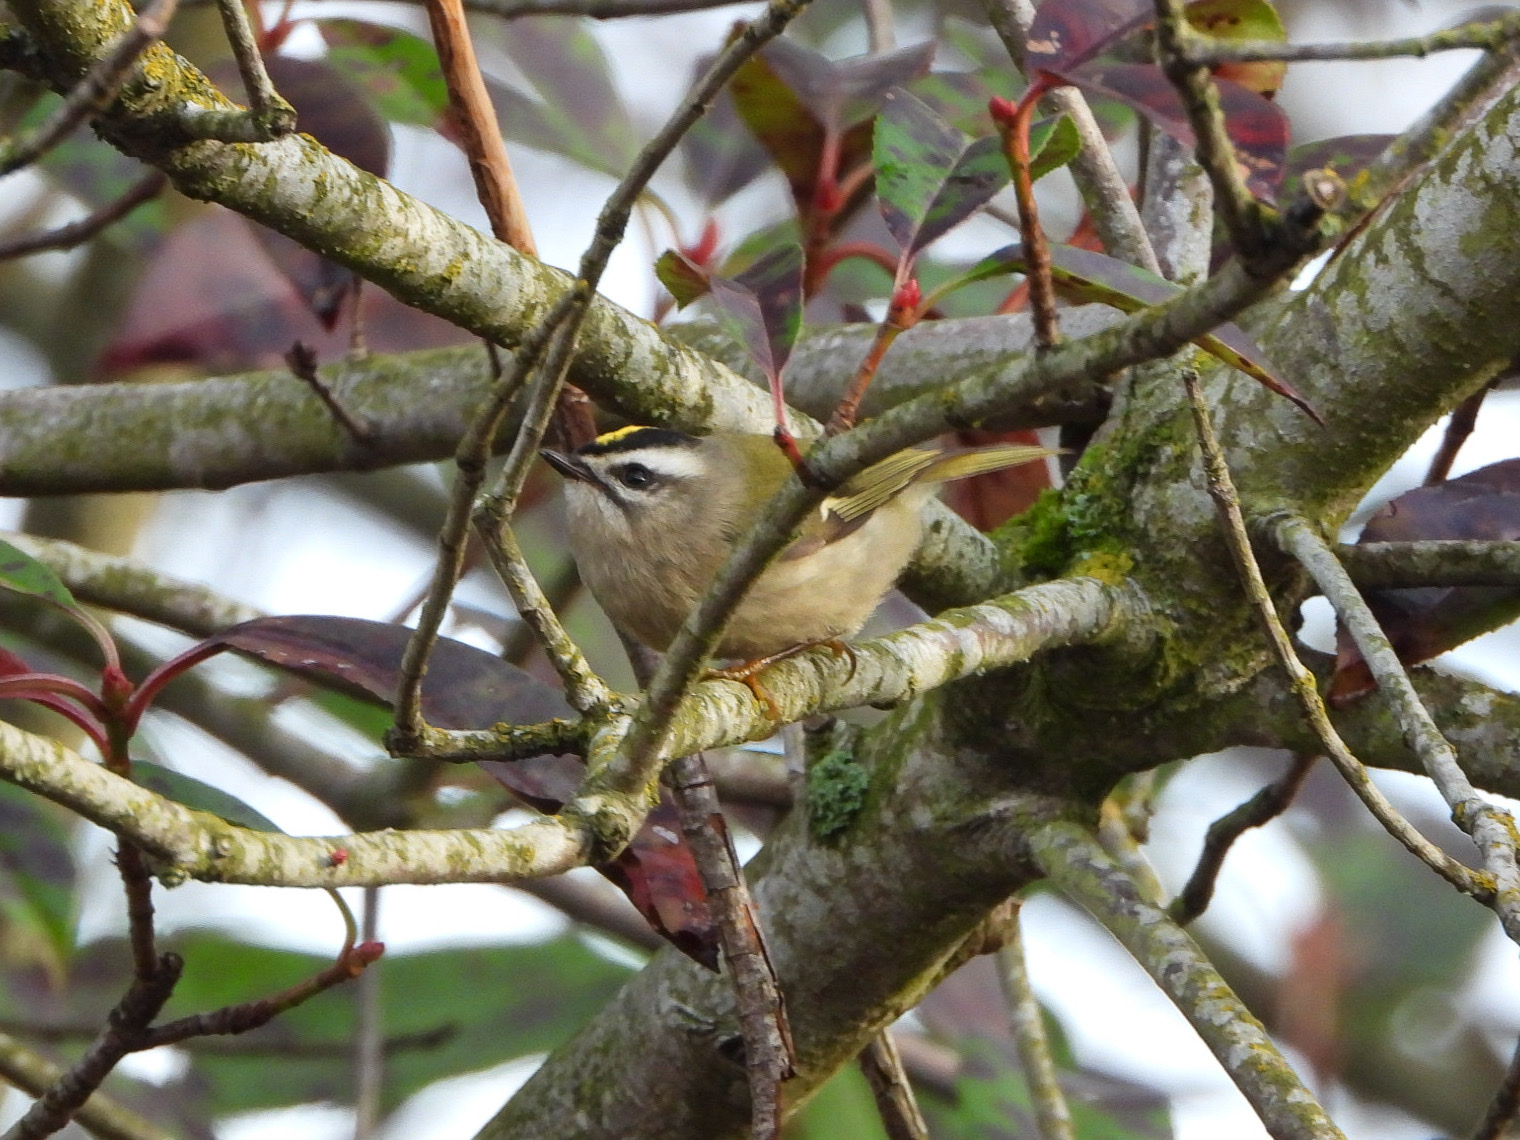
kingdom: Animalia
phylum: Chordata
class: Aves
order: Passeriformes
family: Regulidae
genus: Regulus
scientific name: Regulus satrapa
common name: Golden-crowned kinglet
